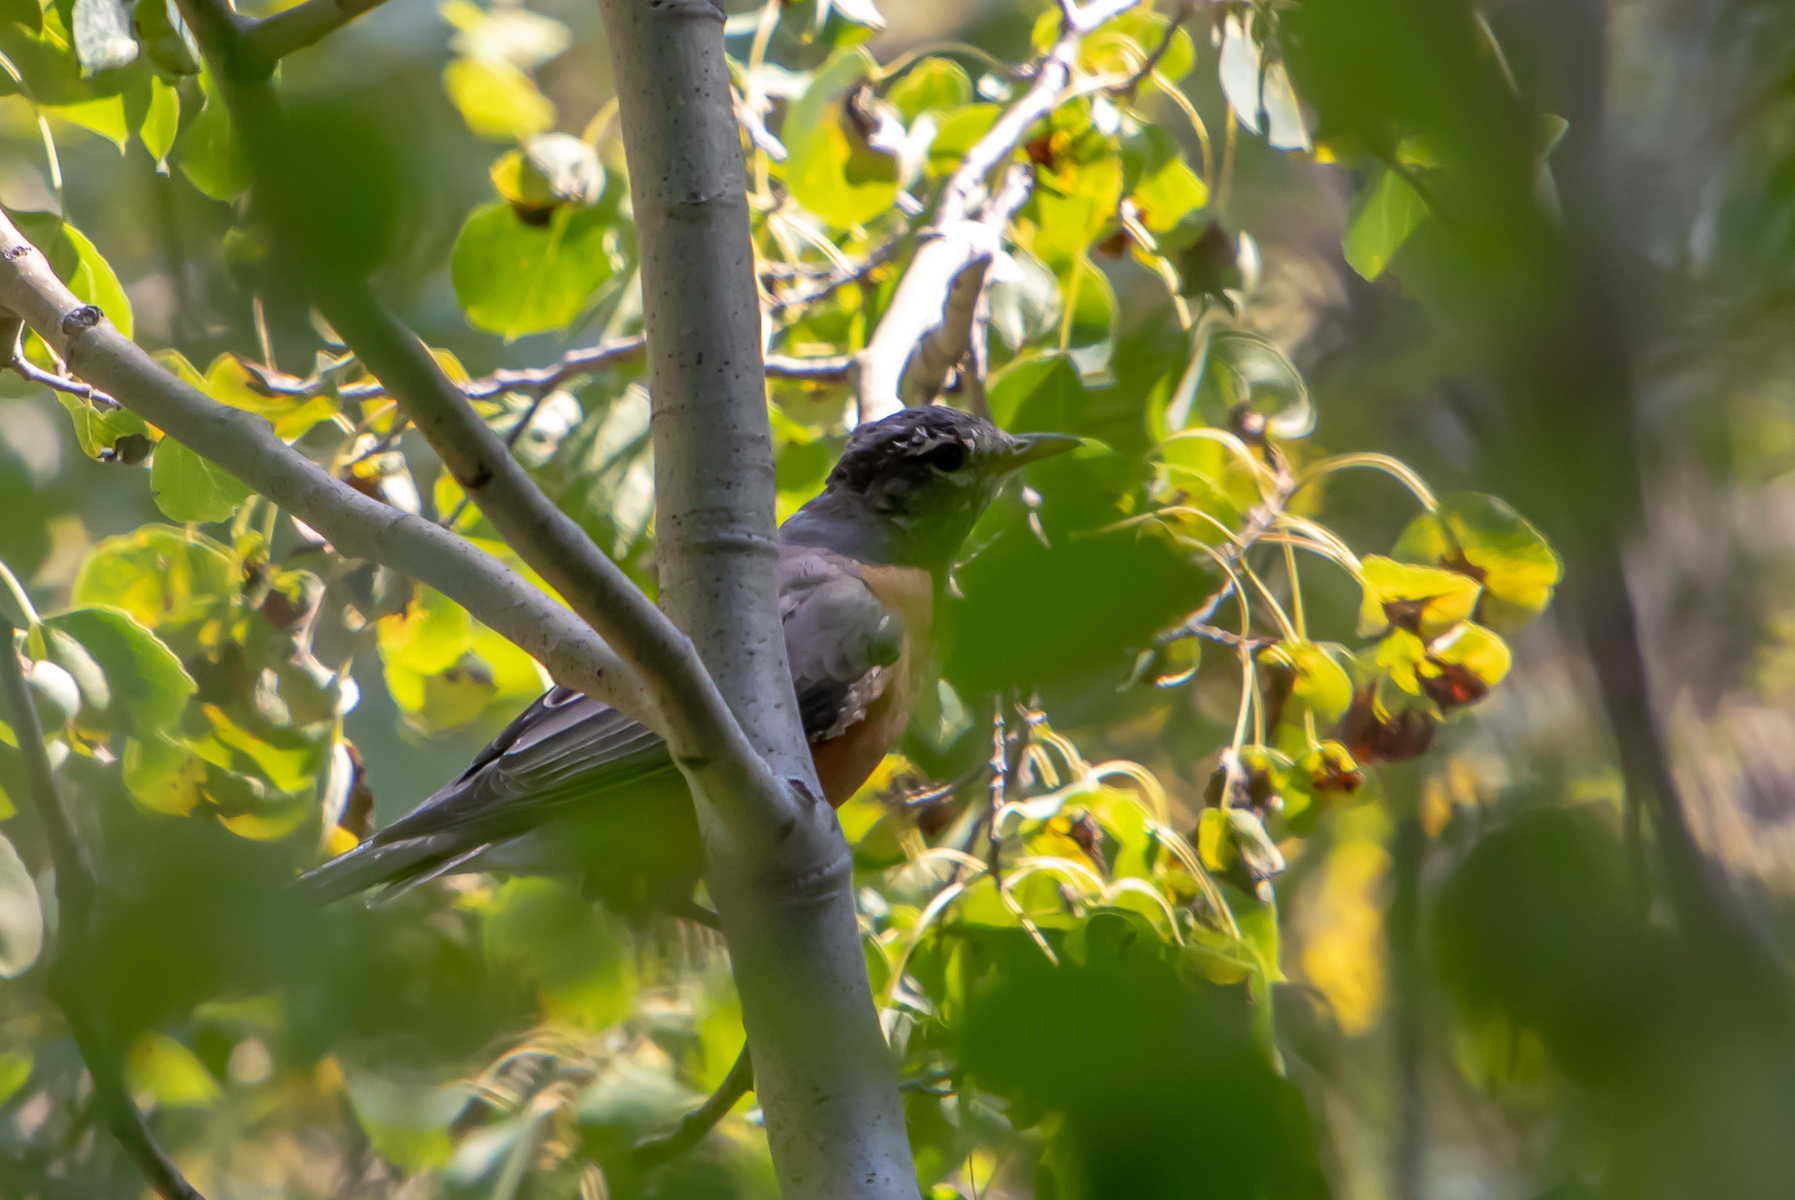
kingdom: Animalia
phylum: Chordata
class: Aves
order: Passeriformes
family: Turdidae
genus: Turdus
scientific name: Turdus migratorius
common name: American robin
